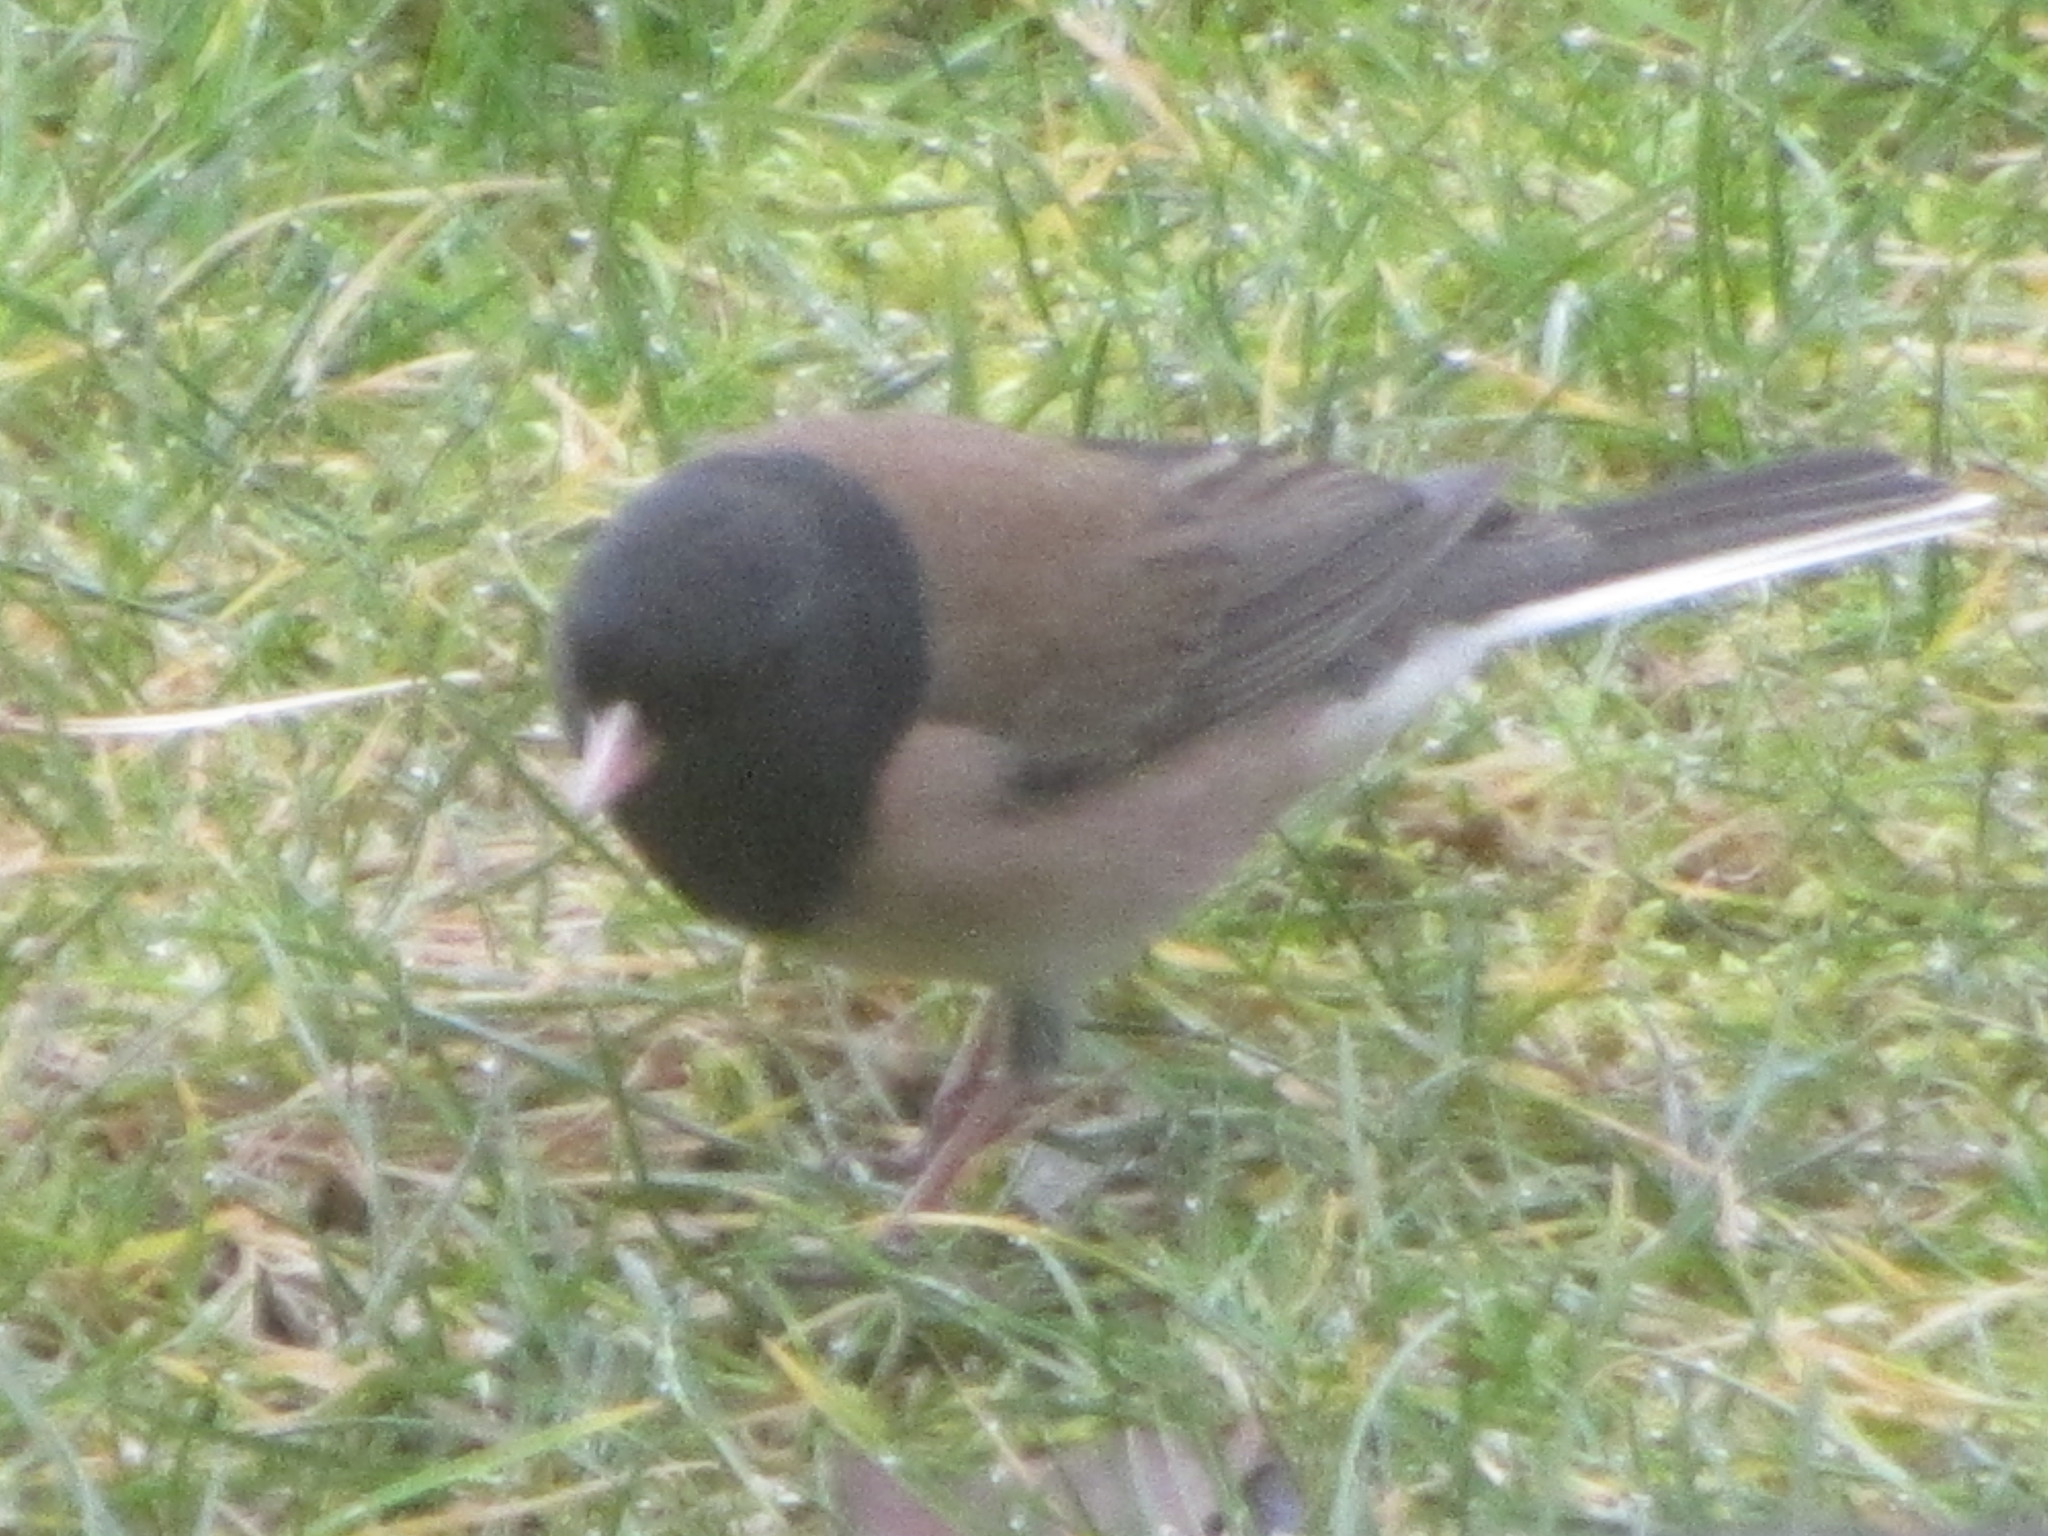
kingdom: Animalia
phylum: Chordata
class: Aves
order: Passeriformes
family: Passerellidae
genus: Junco
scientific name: Junco hyemalis
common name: Dark-eyed junco
